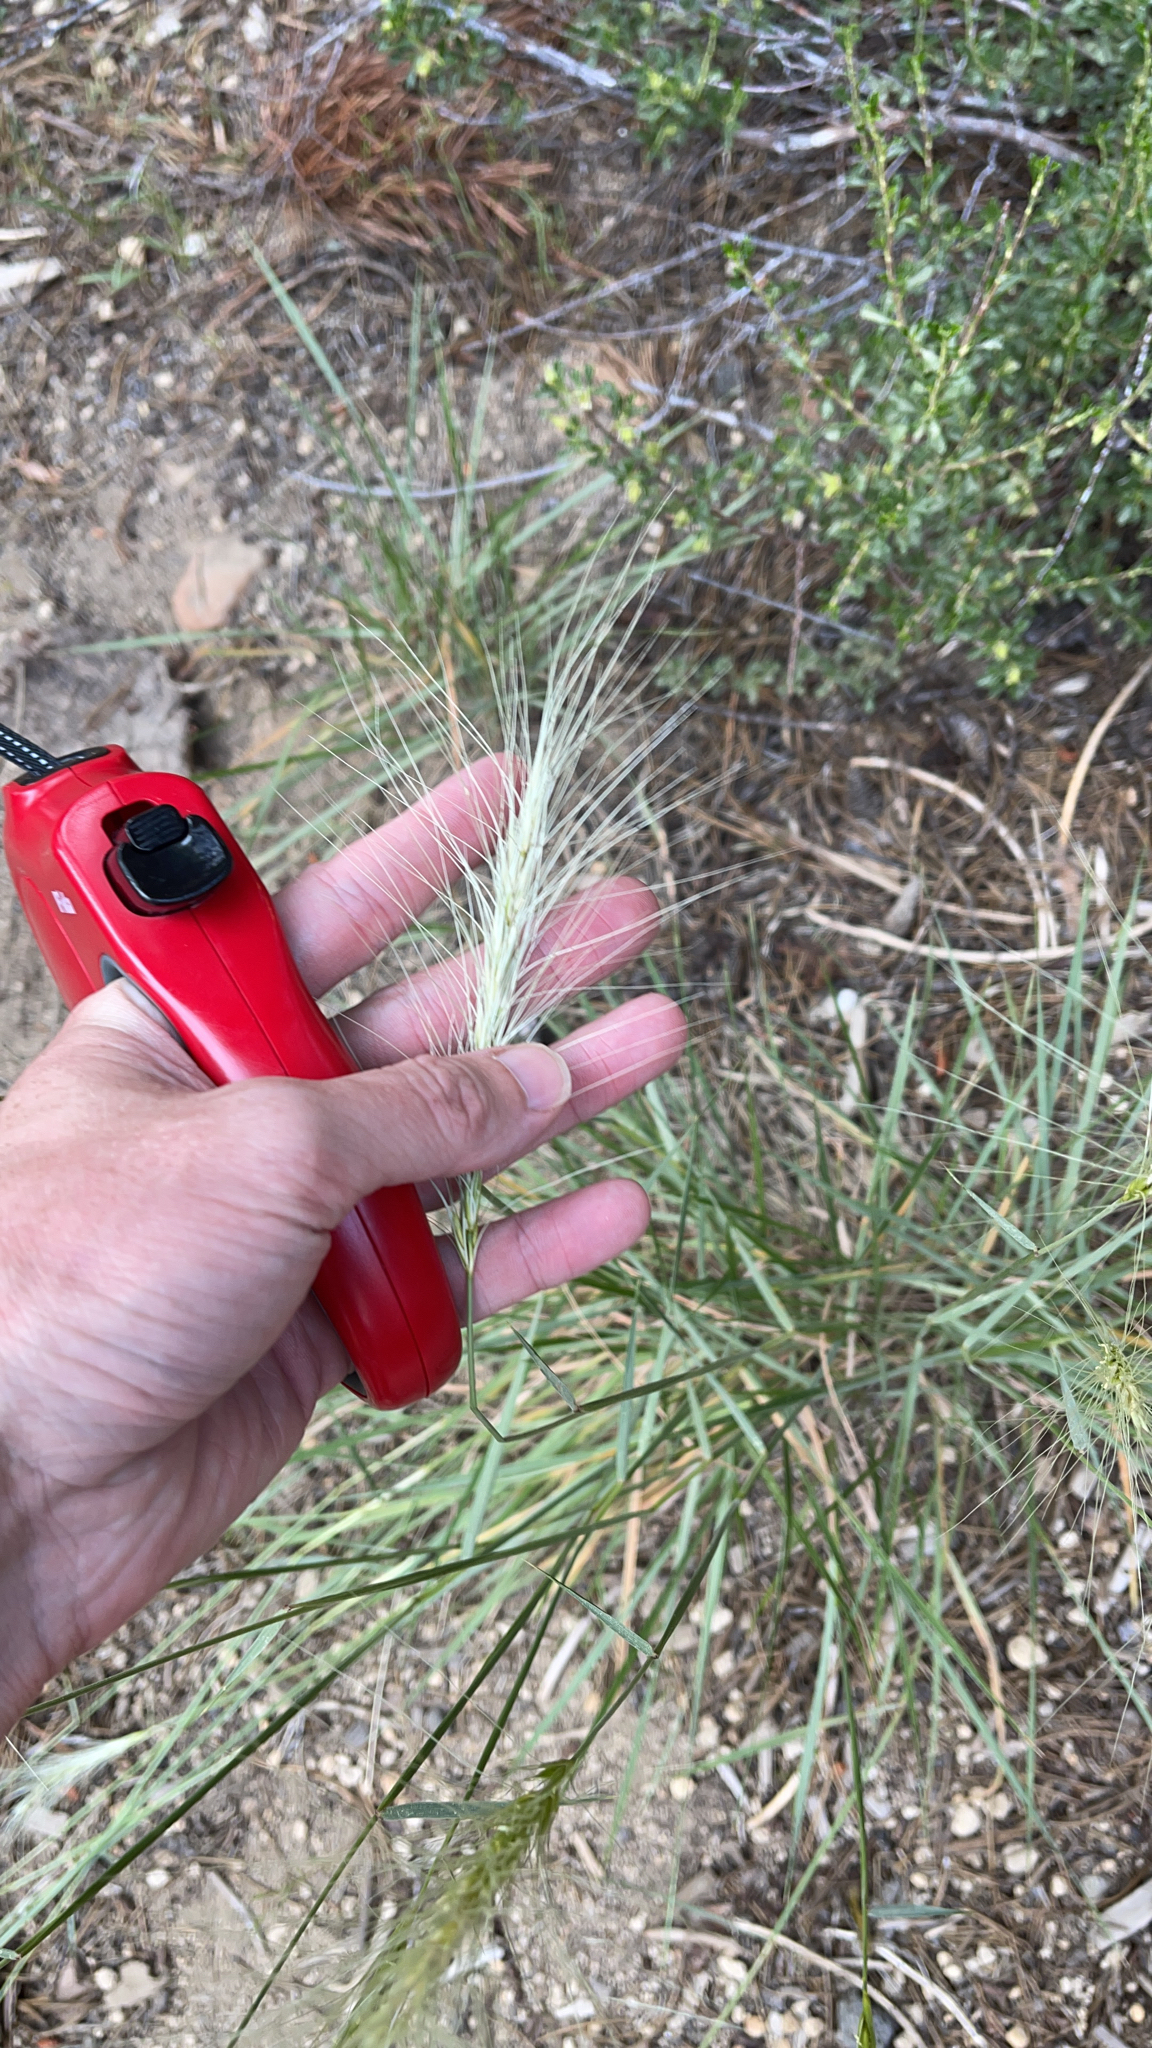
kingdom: Plantae
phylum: Tracheophyta
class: Liliopsida
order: Poales
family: Poaceae
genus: Elymus
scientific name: Elymus elymoides
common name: Bottlebrush squirreltail
